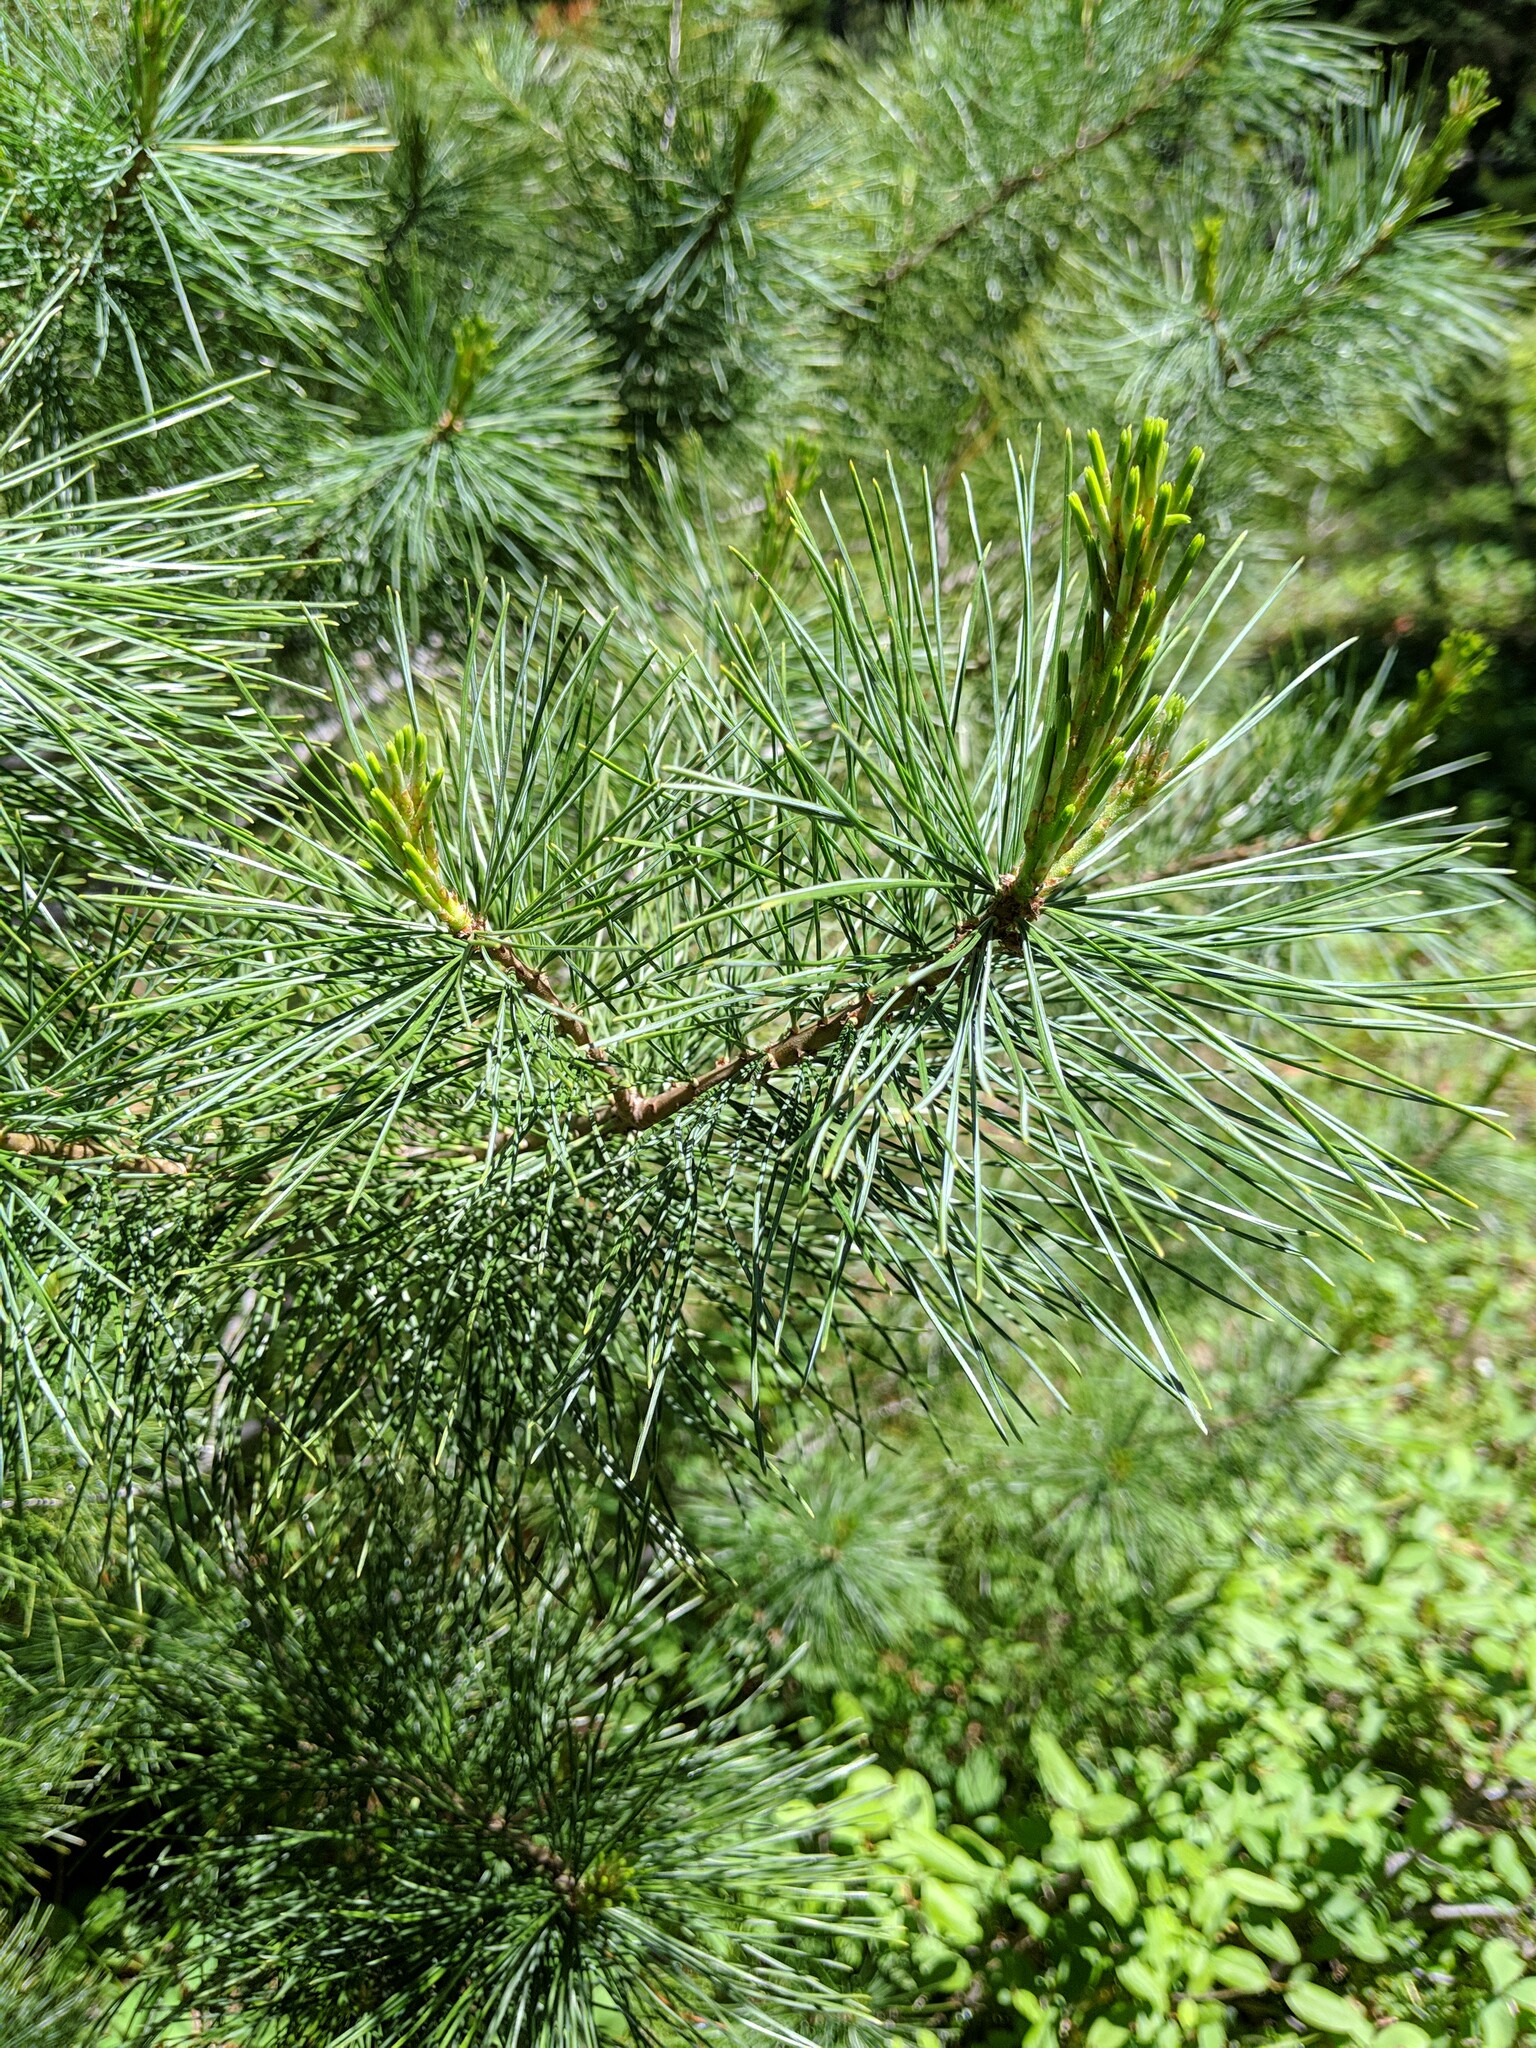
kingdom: Plantae
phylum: Tracheophyta
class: Pinopsida
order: Pinales
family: Pinaceae
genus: Pinus
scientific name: Pinus monticola
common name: Western white pine
